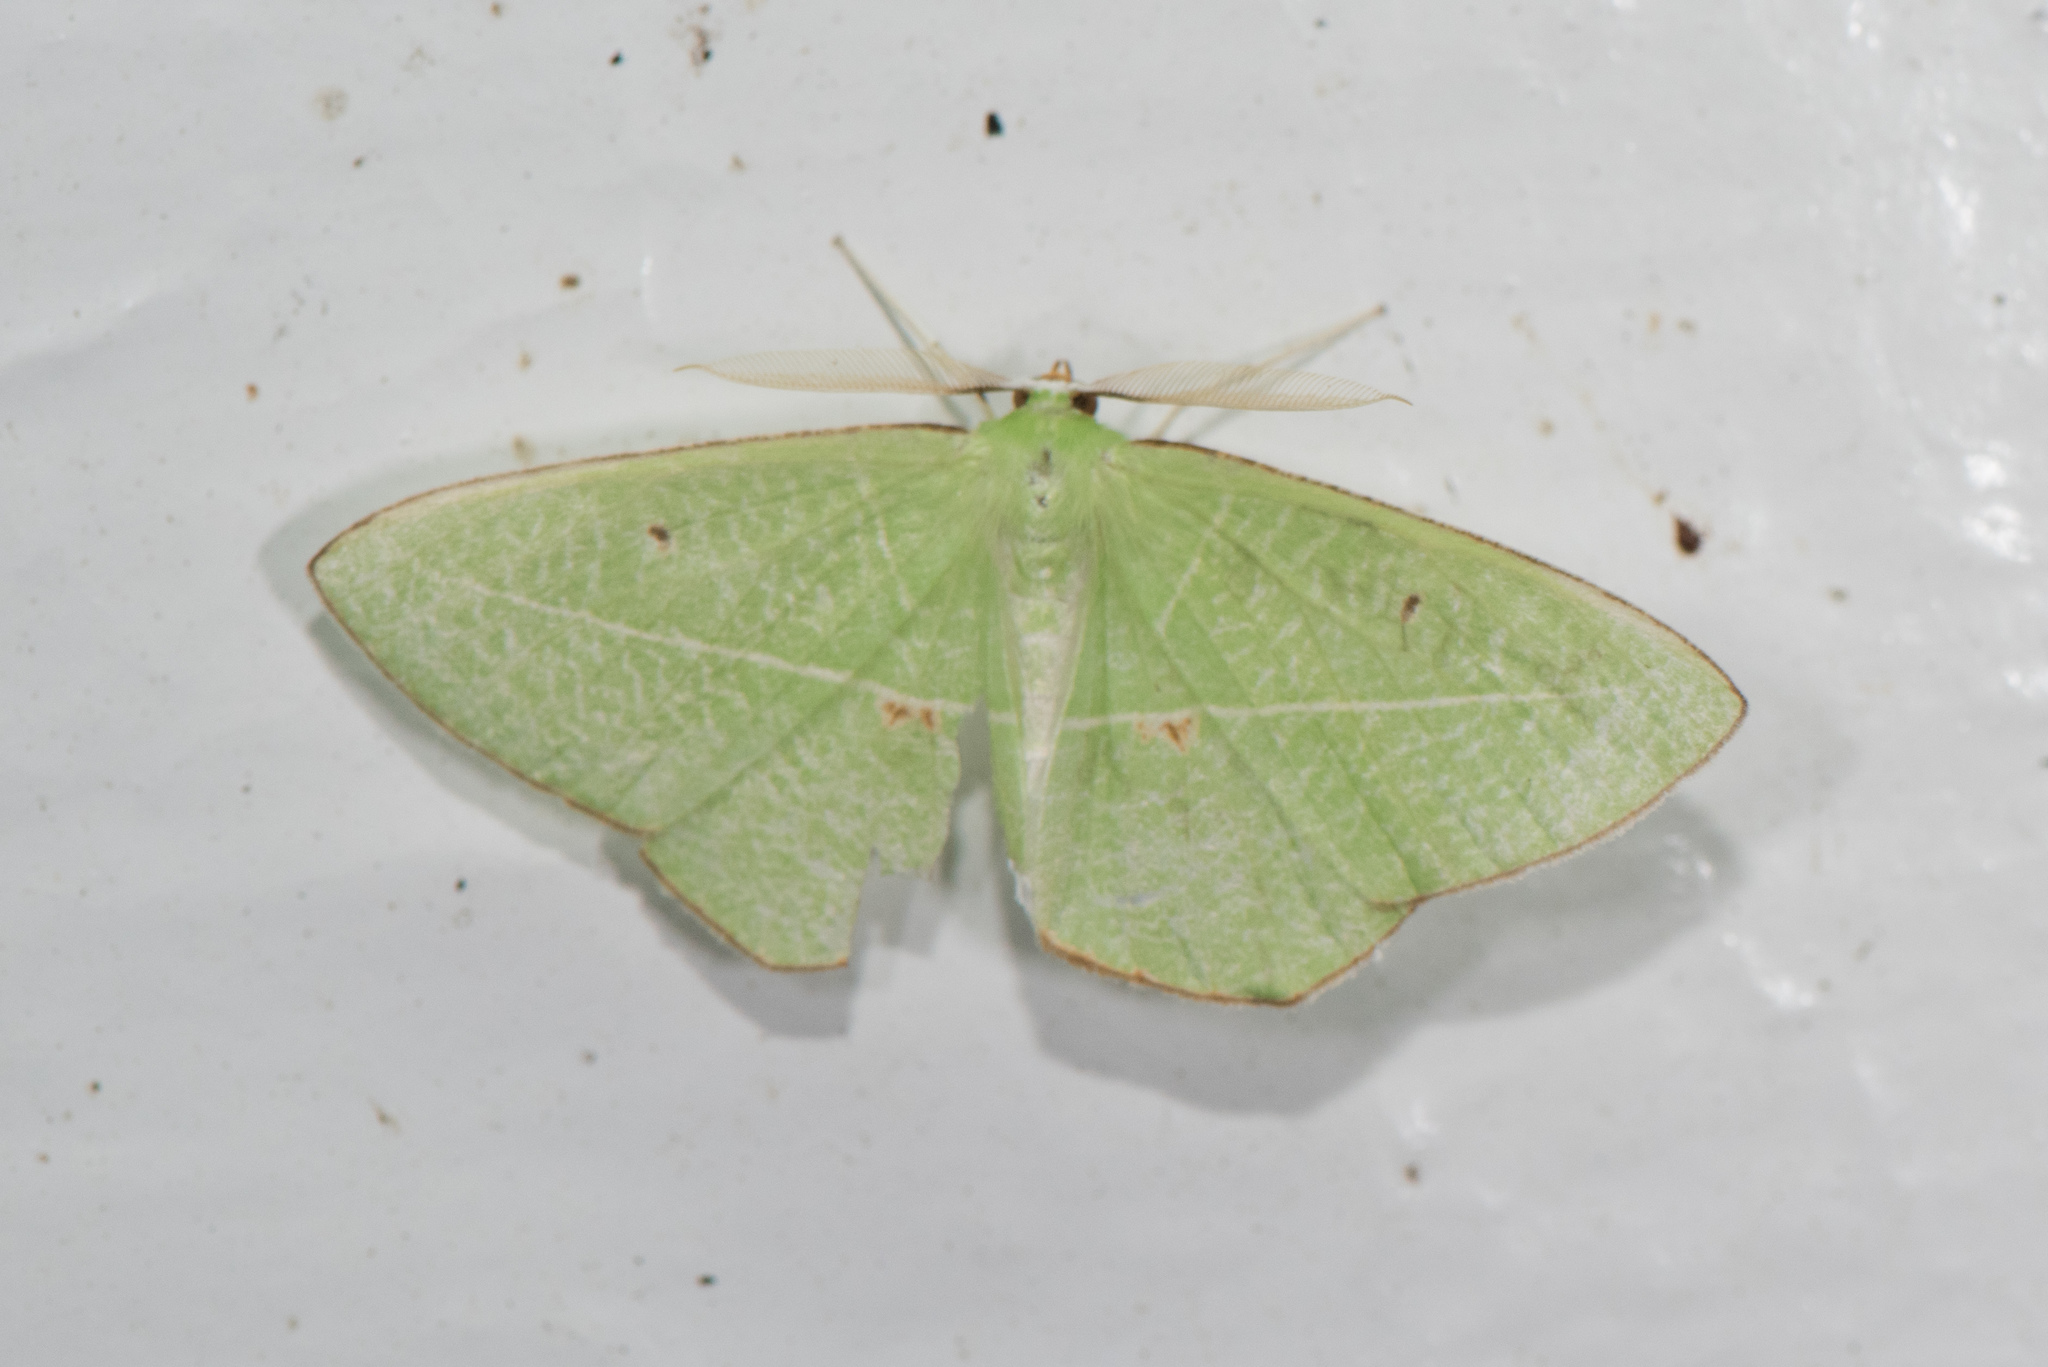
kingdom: Animalia
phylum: Arthropoda
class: Insecta
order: Lepidoptera
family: Geometridae
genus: Tanaoctenia
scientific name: Tanaoctenia haliaria
